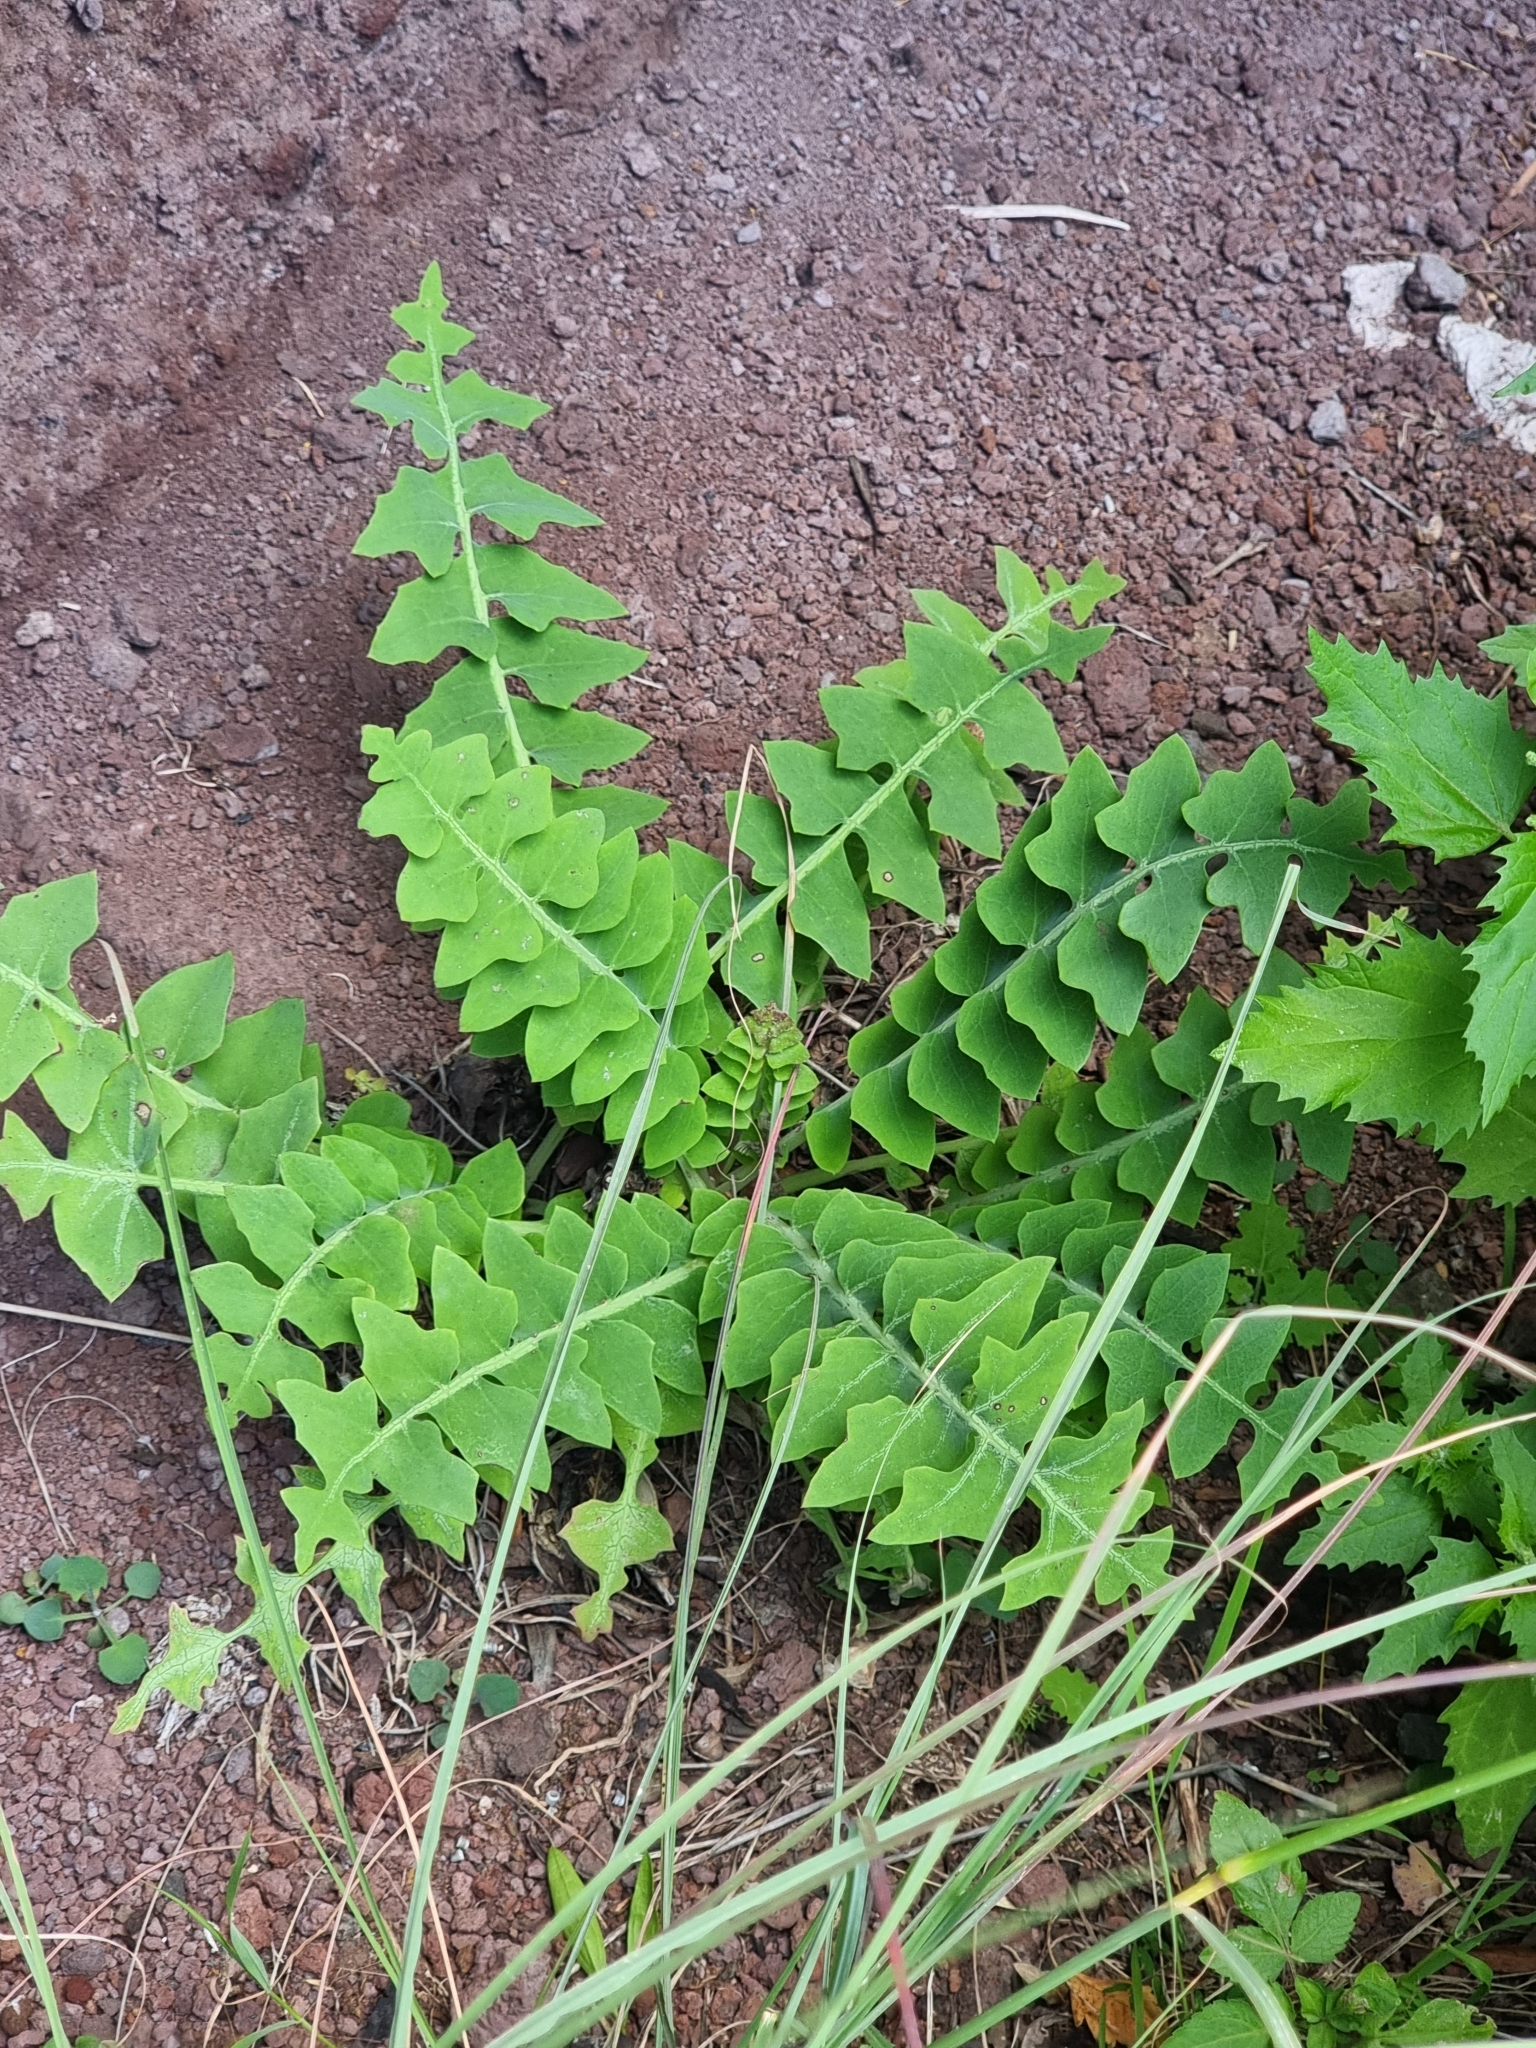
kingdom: Plantae
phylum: Tracheophyta
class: Magnoliopsida
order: Asterales
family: Asteraceae
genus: Sonchus
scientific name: Sonchus latifolius
